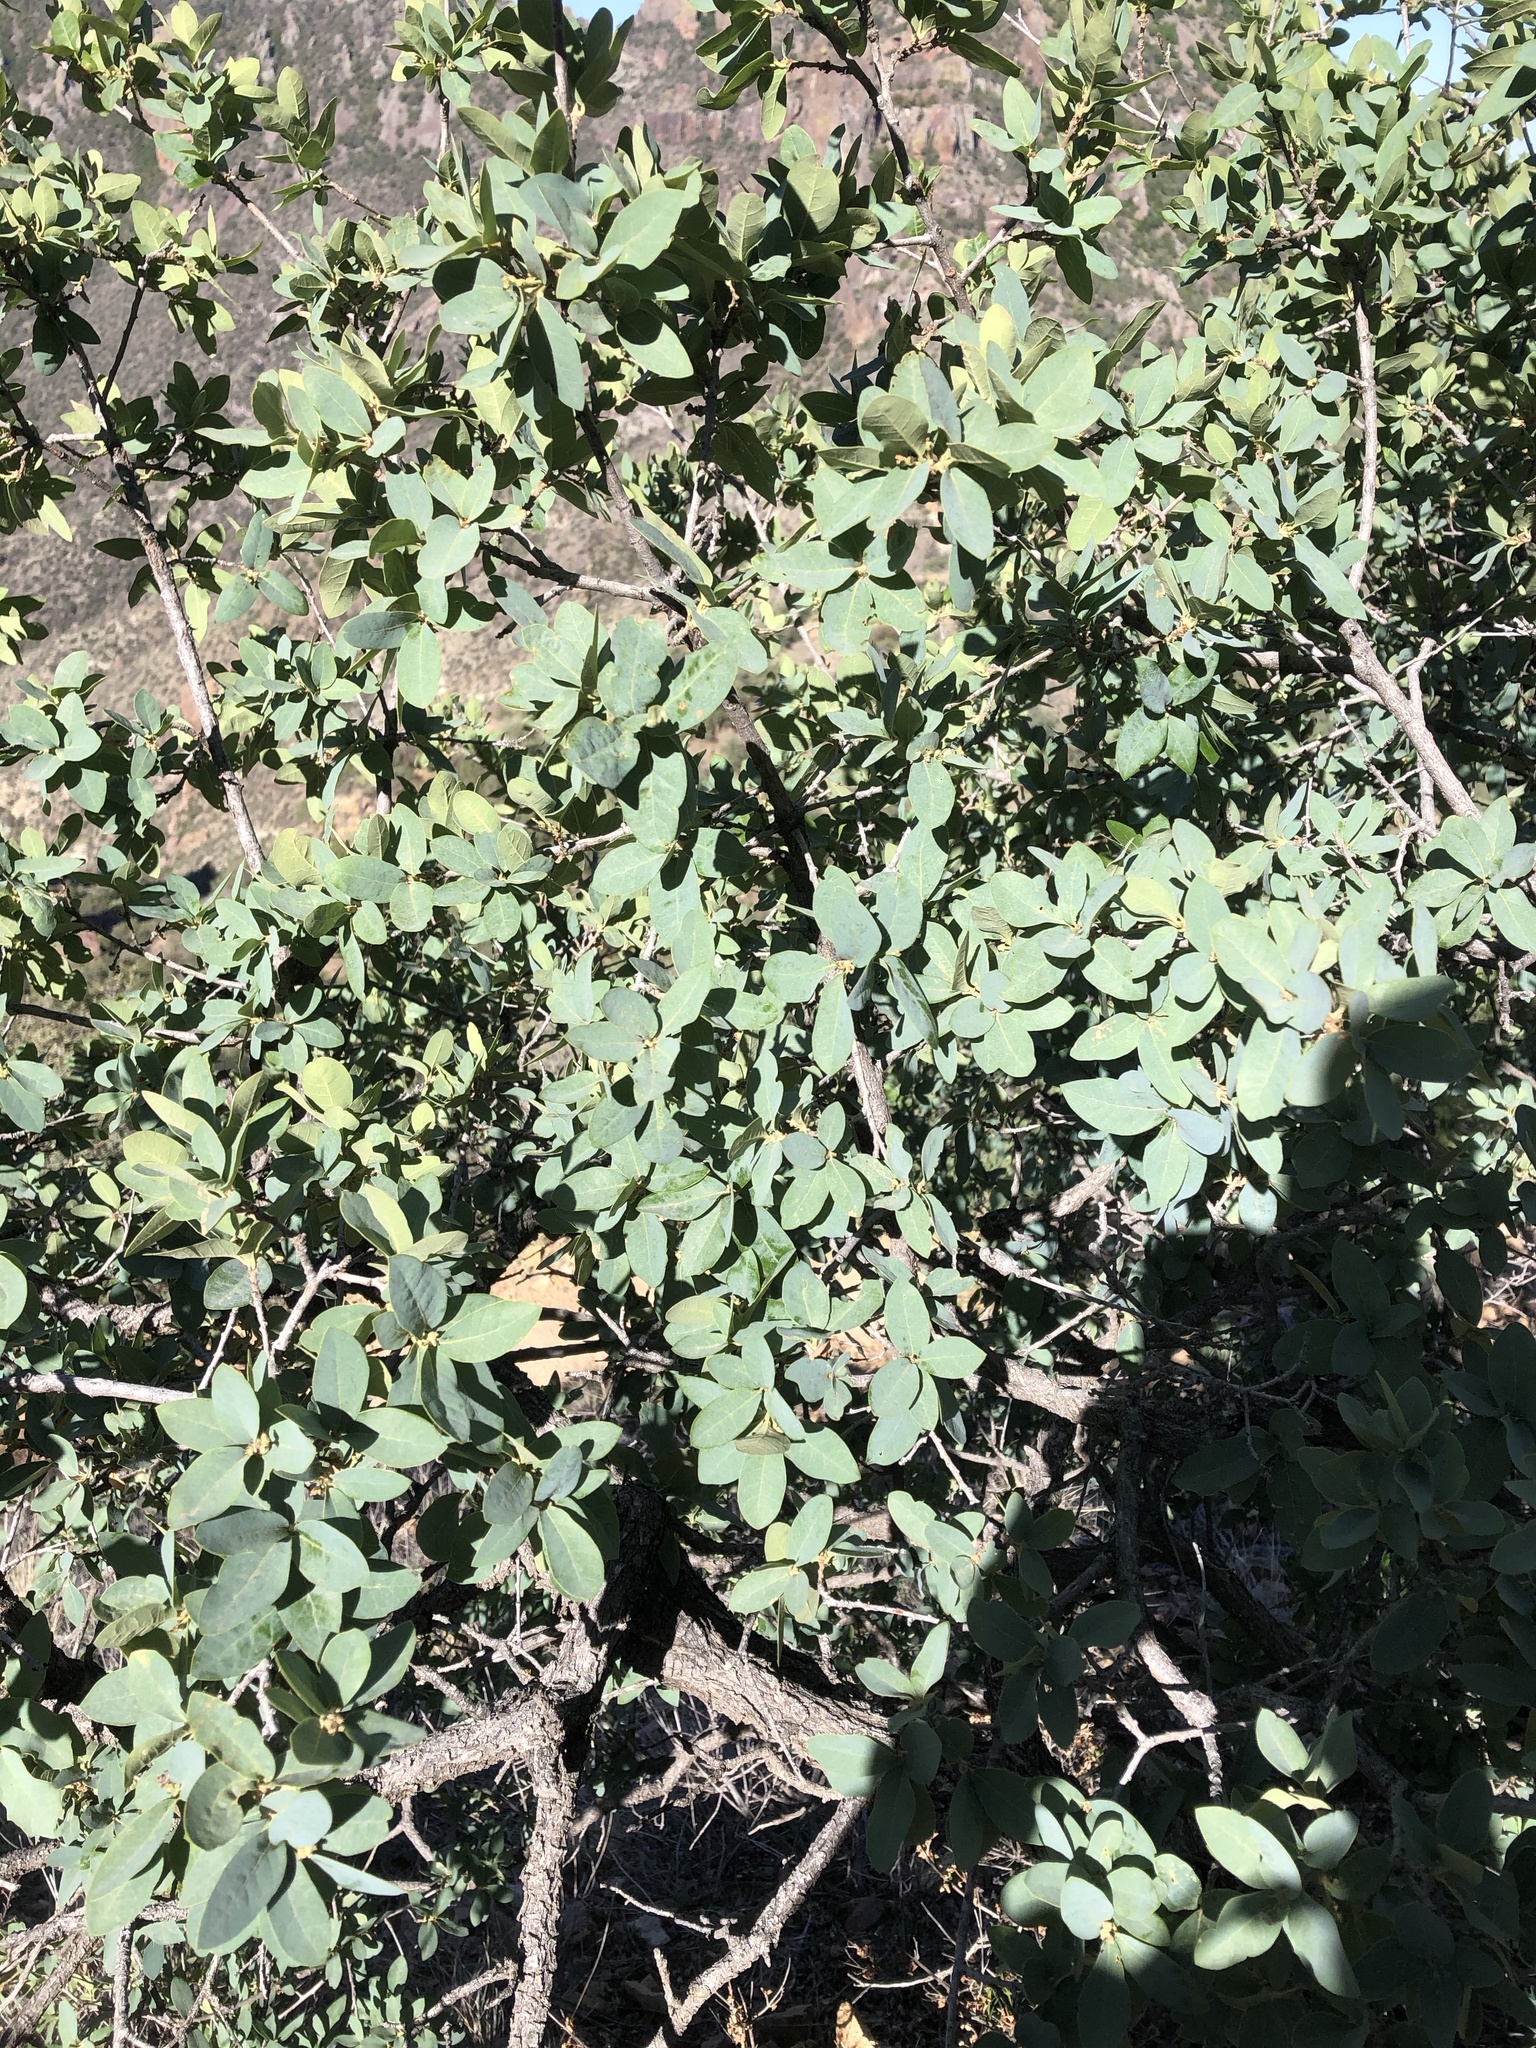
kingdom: Plantae
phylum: Tracheophyta
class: Magnoliopsida
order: Fagales
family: Fagaceae
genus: Quercus
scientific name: Quercus grisea
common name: Gray oak
